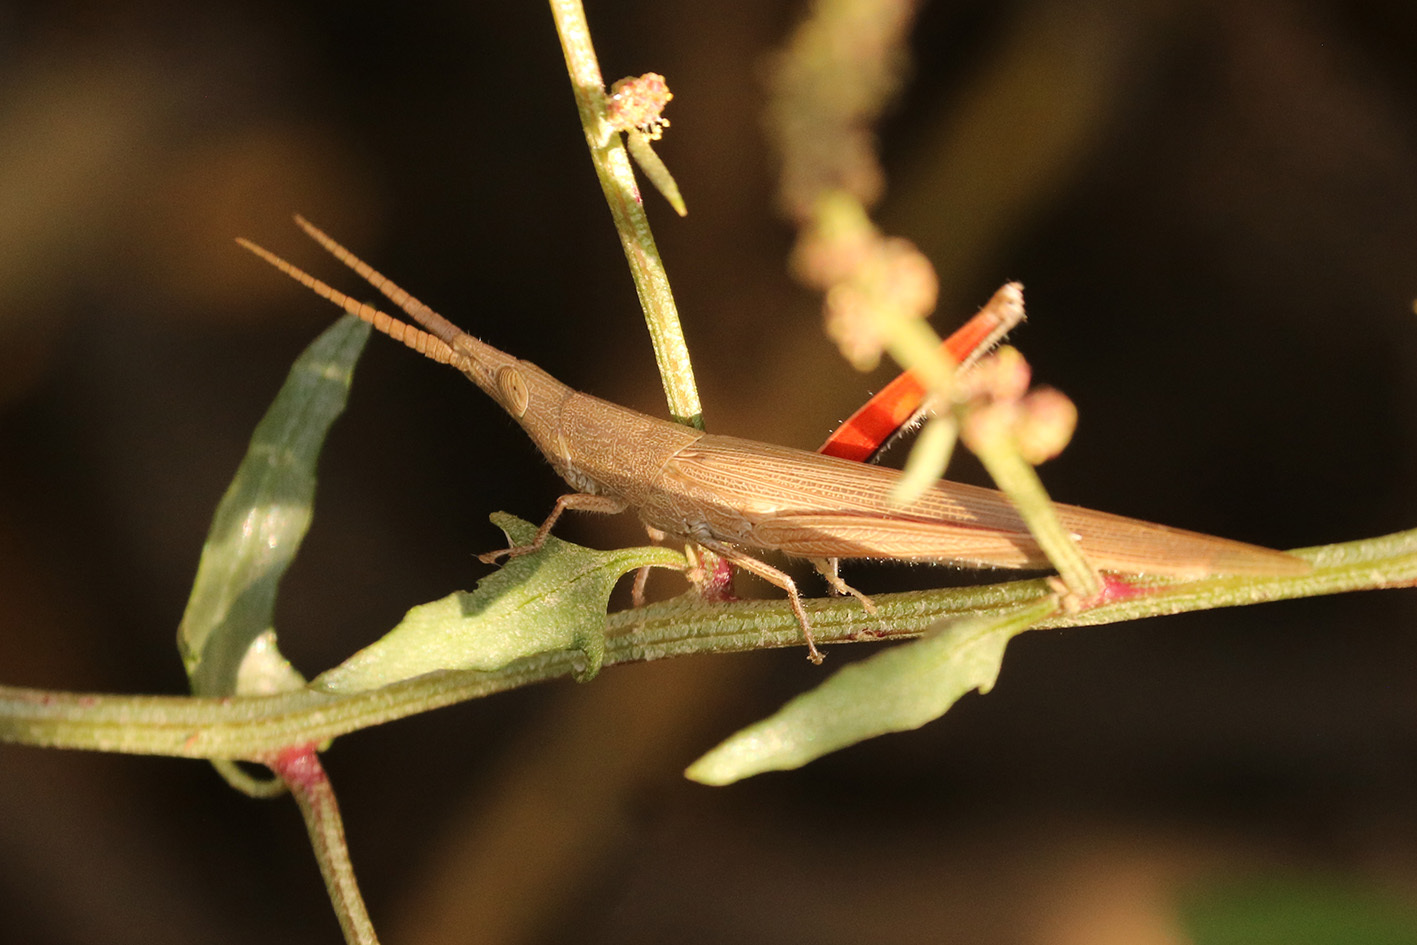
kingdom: Animalia
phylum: Arthropoda
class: Insecta
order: Orthoptera
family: Acrididae
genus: Haroldgrantia
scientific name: Haroldgrantia lignosa
